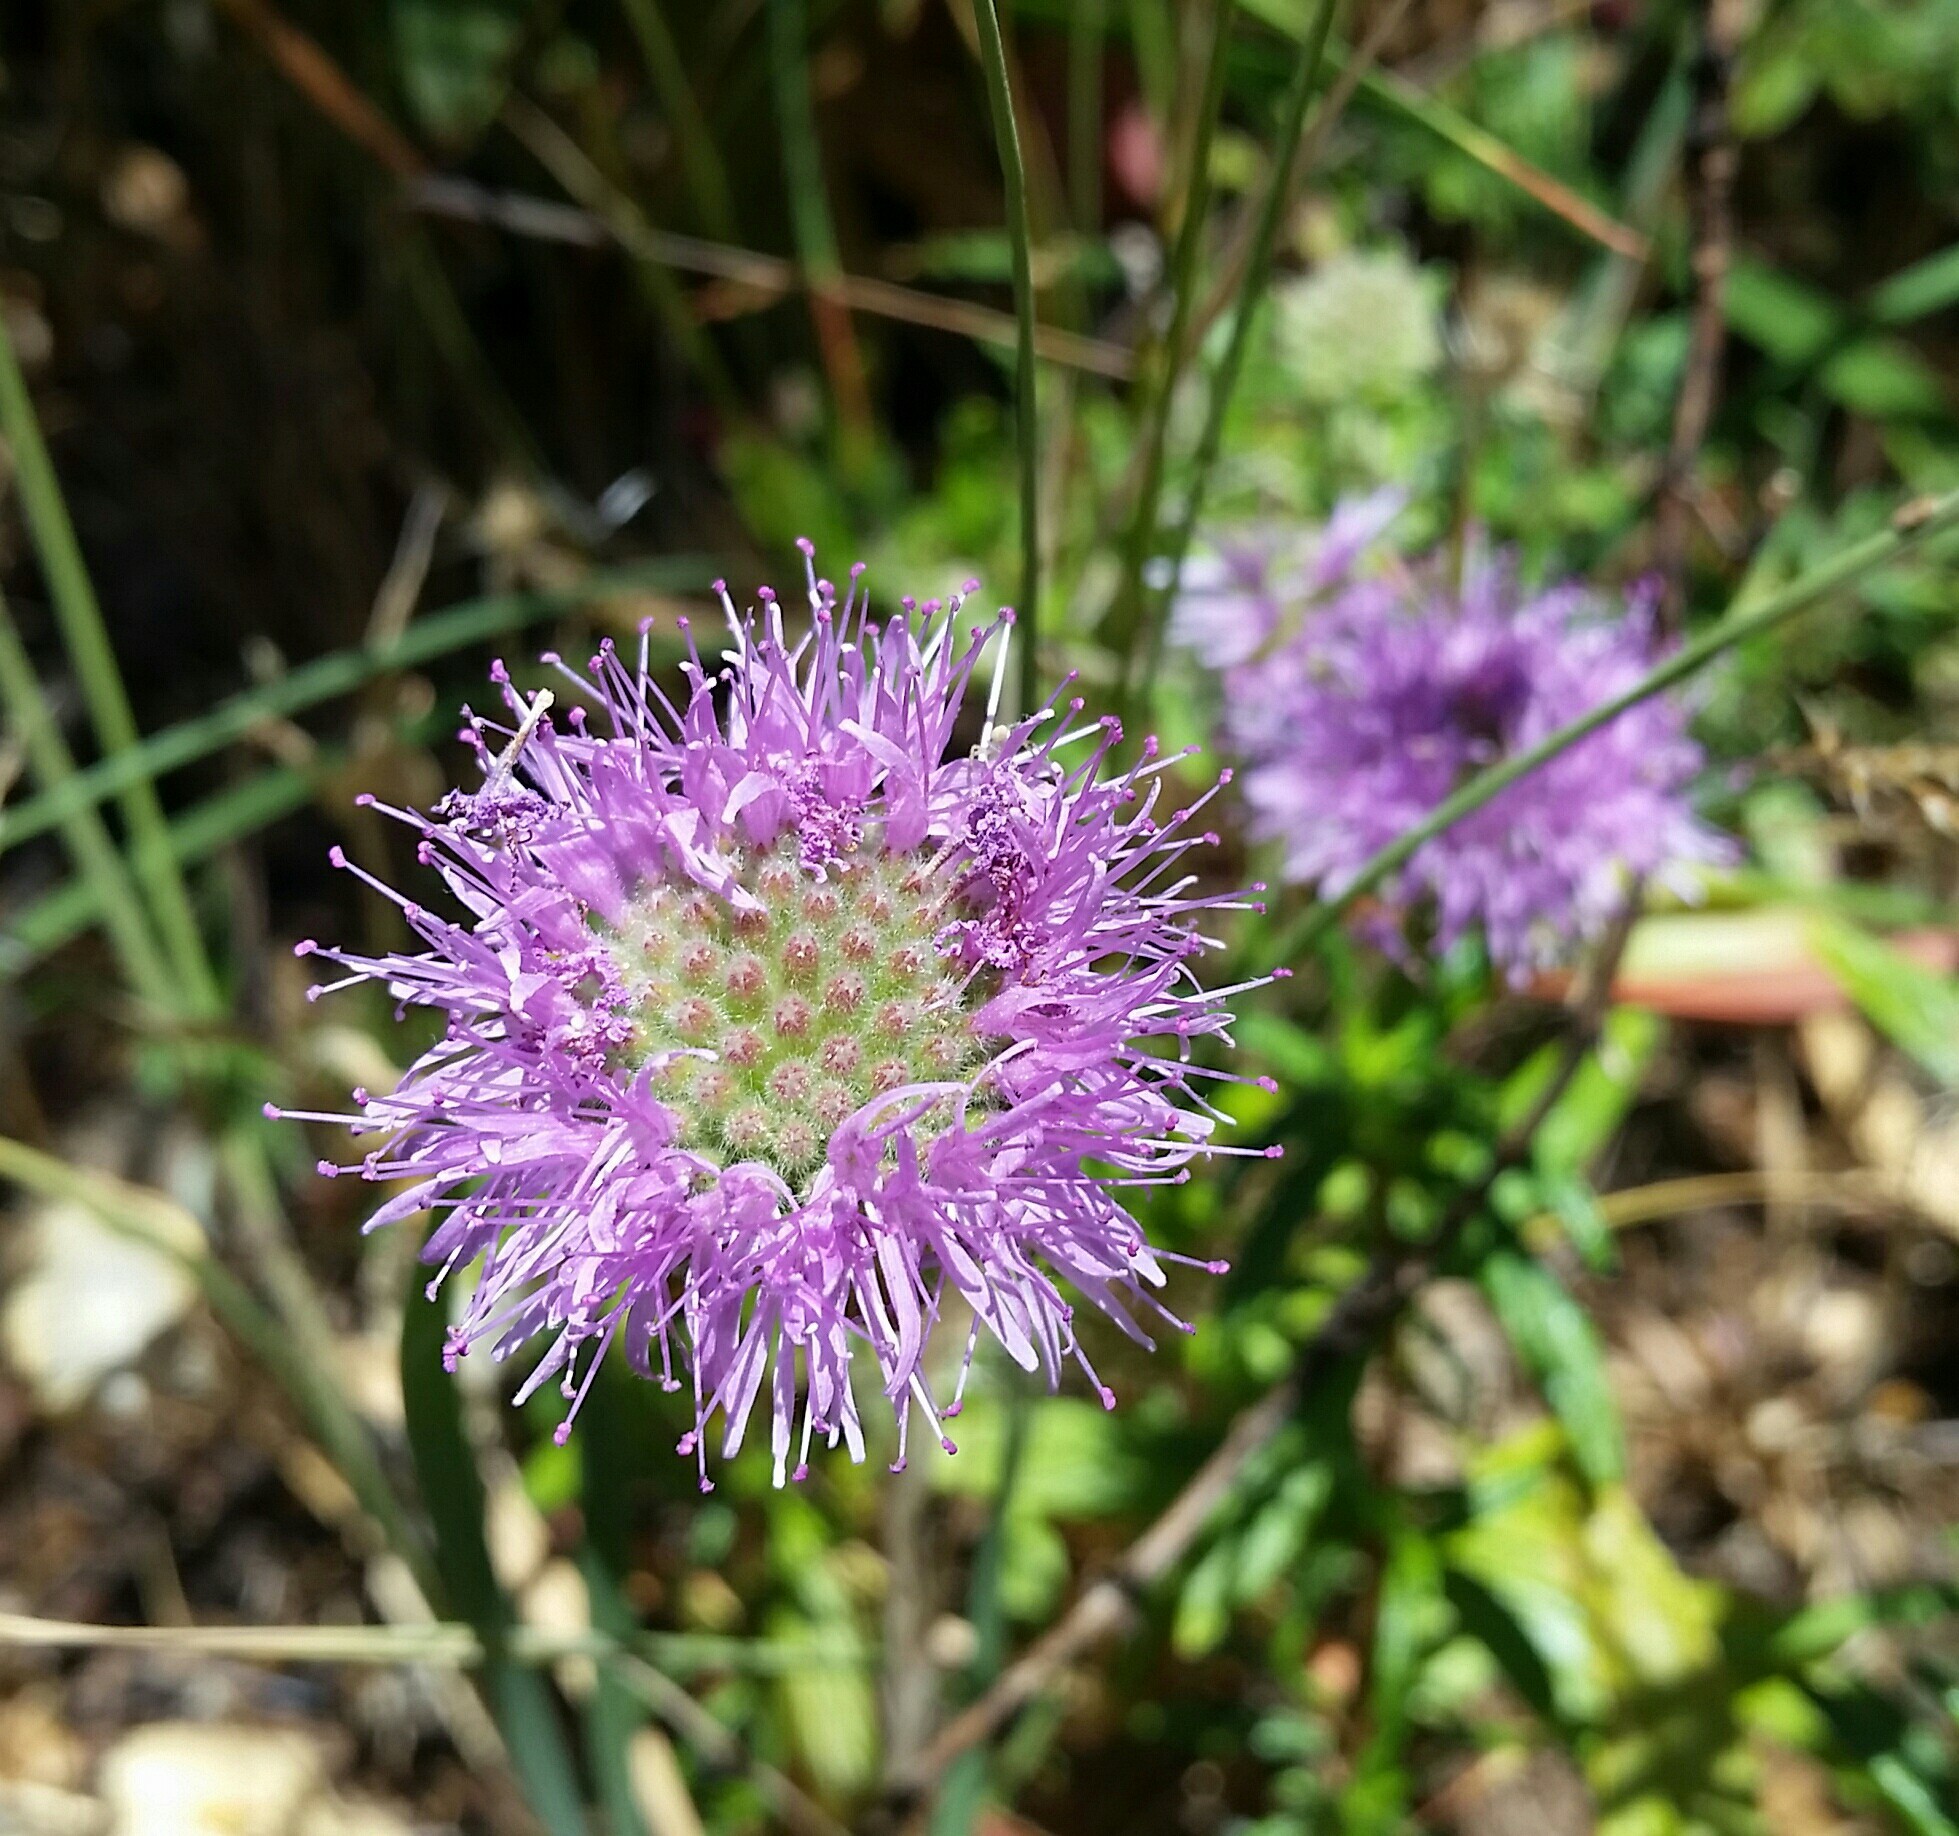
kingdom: Plantae
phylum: Tracheophyta
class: Magnoliopsida
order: Lamiales
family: Lamiaceae
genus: Monardella
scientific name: Monardella odoratissima
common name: Pacific monardella
